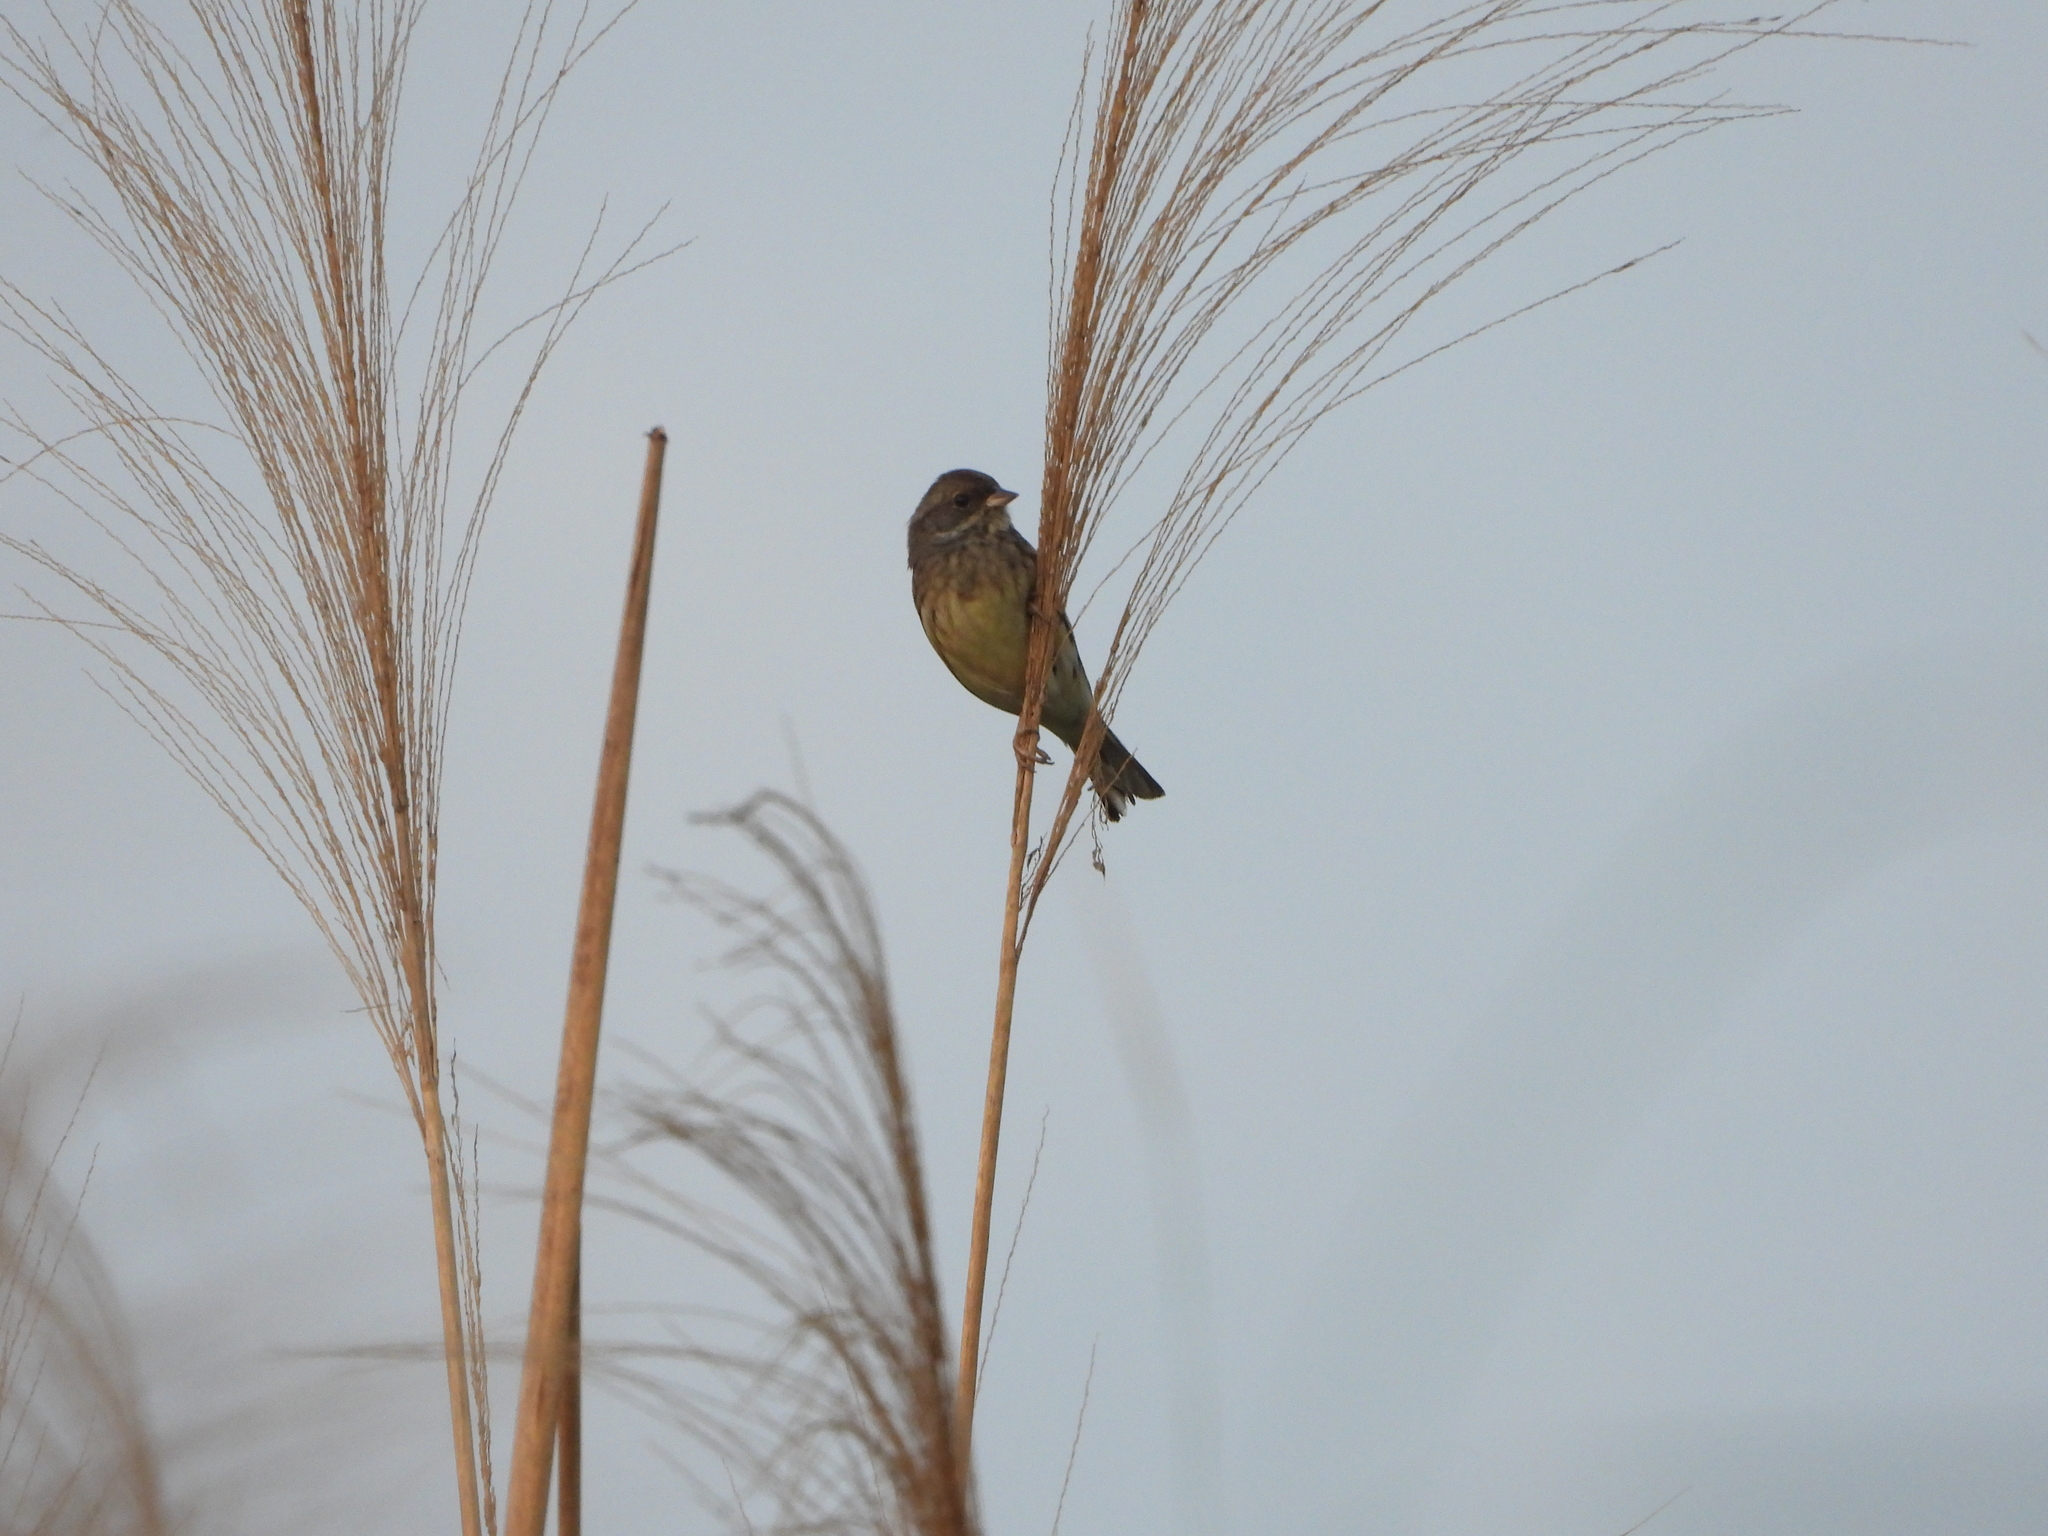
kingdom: Animalia
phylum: Chordata
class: Aves
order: Passeriformes
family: Emberizidae
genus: Emberiza
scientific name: Emberiza spodocephala
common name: Black-faced bunting
